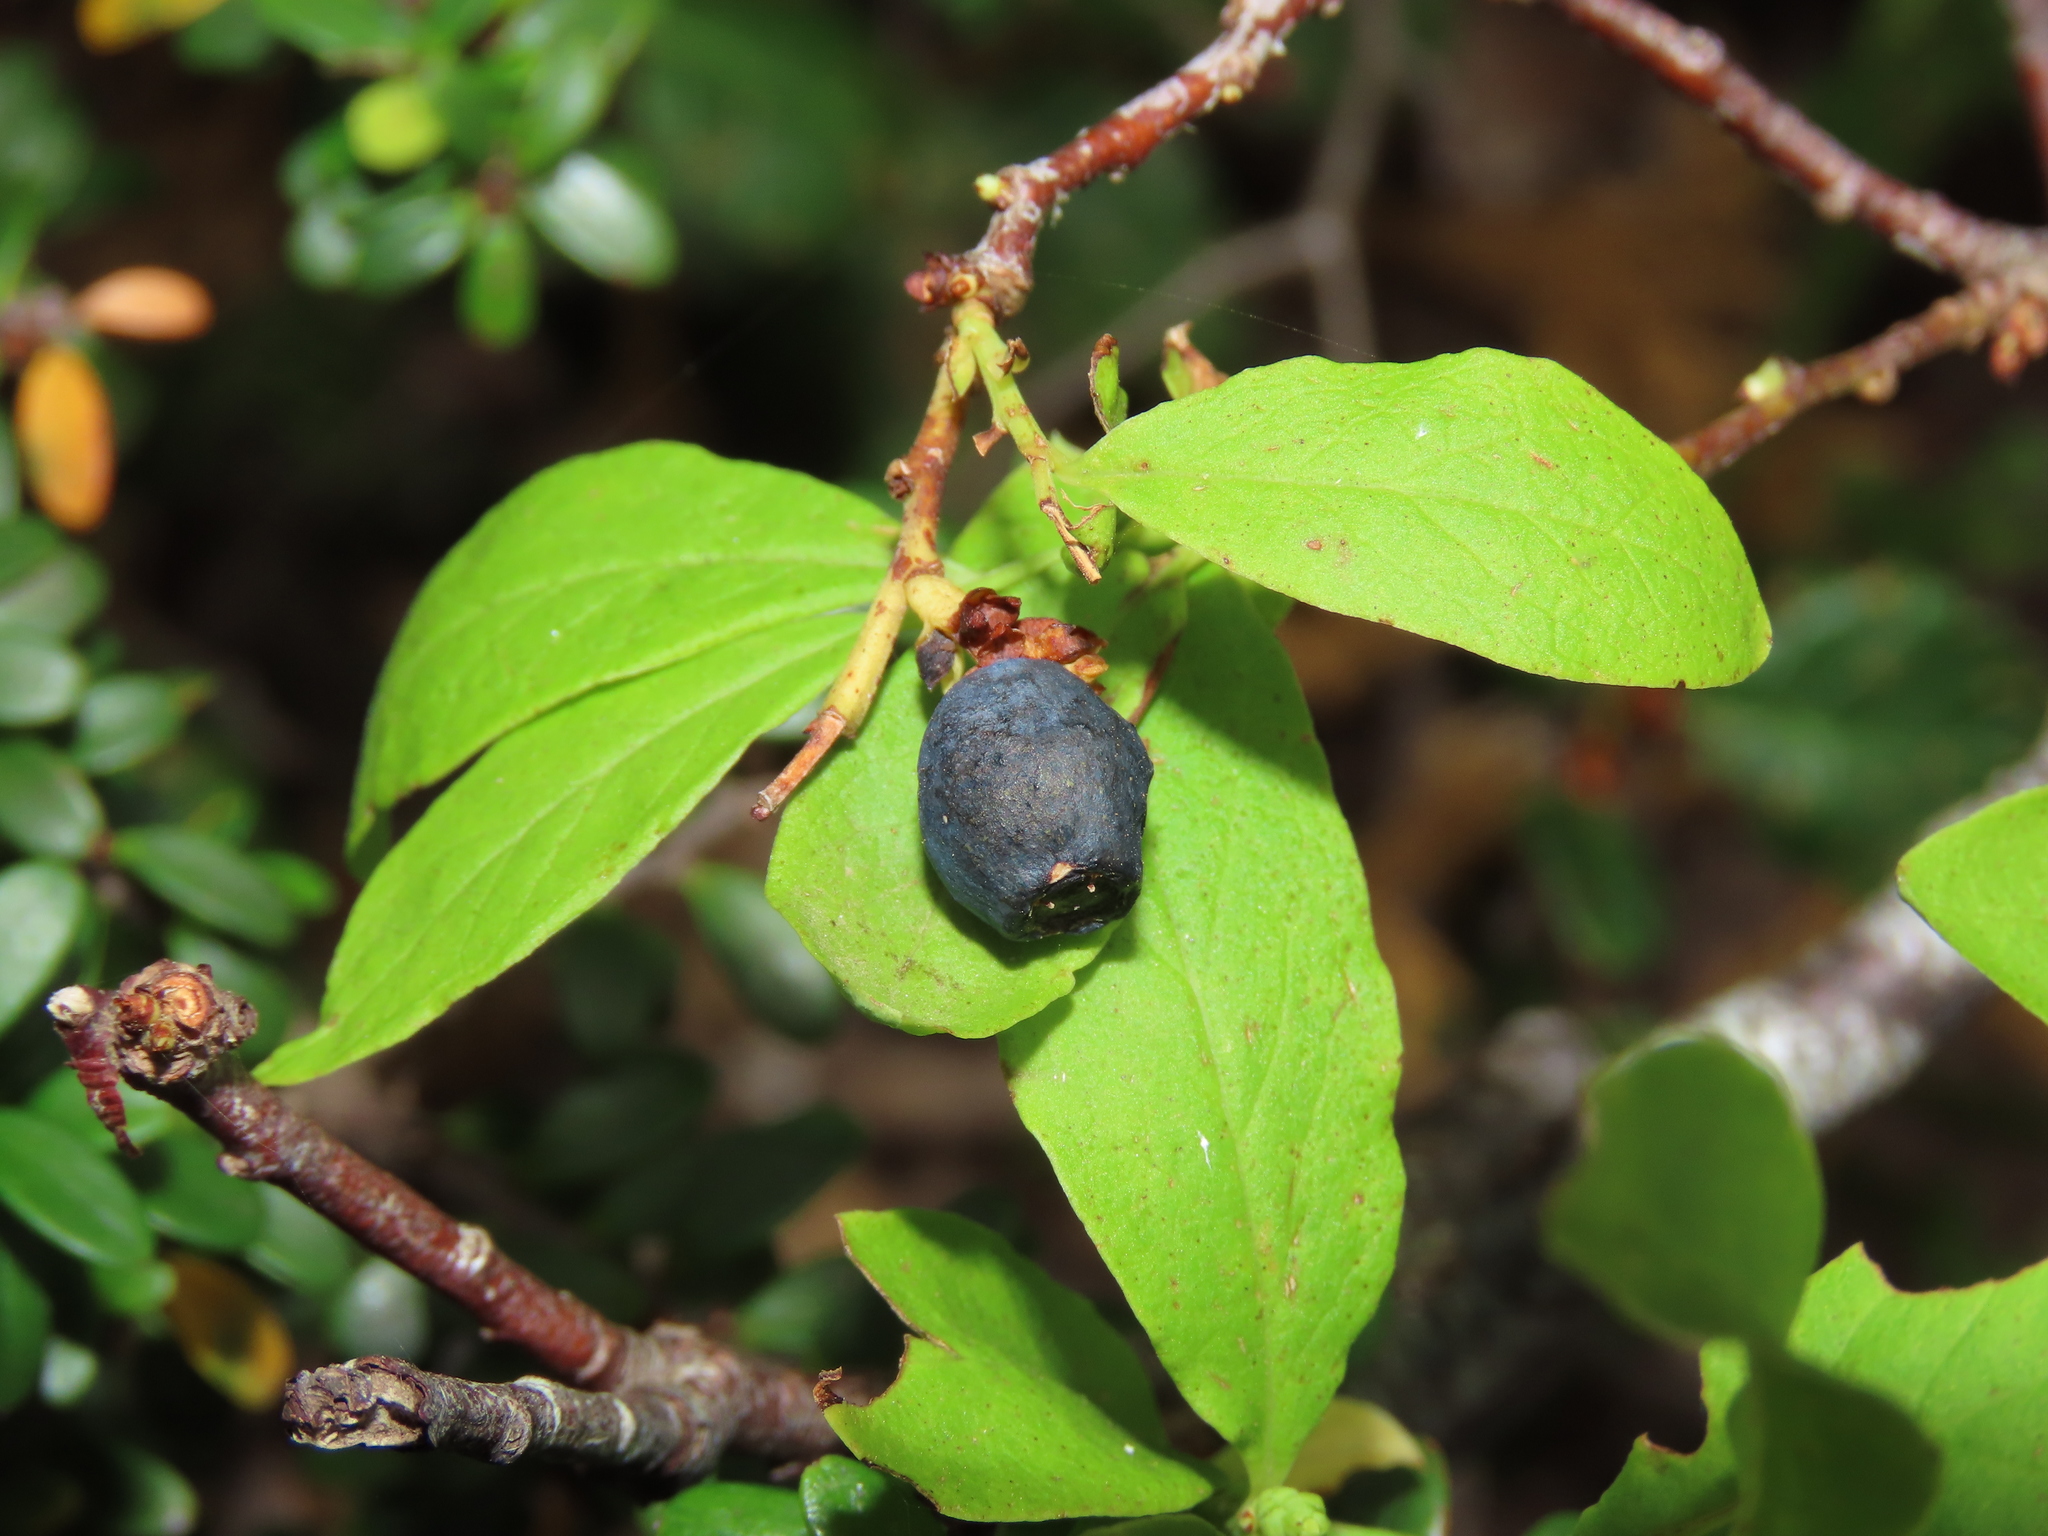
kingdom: Plantae
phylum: Tracheophyta
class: Magnoliopsida
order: Santalales
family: Santalaceae
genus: Myoschilos
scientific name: Myoschilos oblongum
